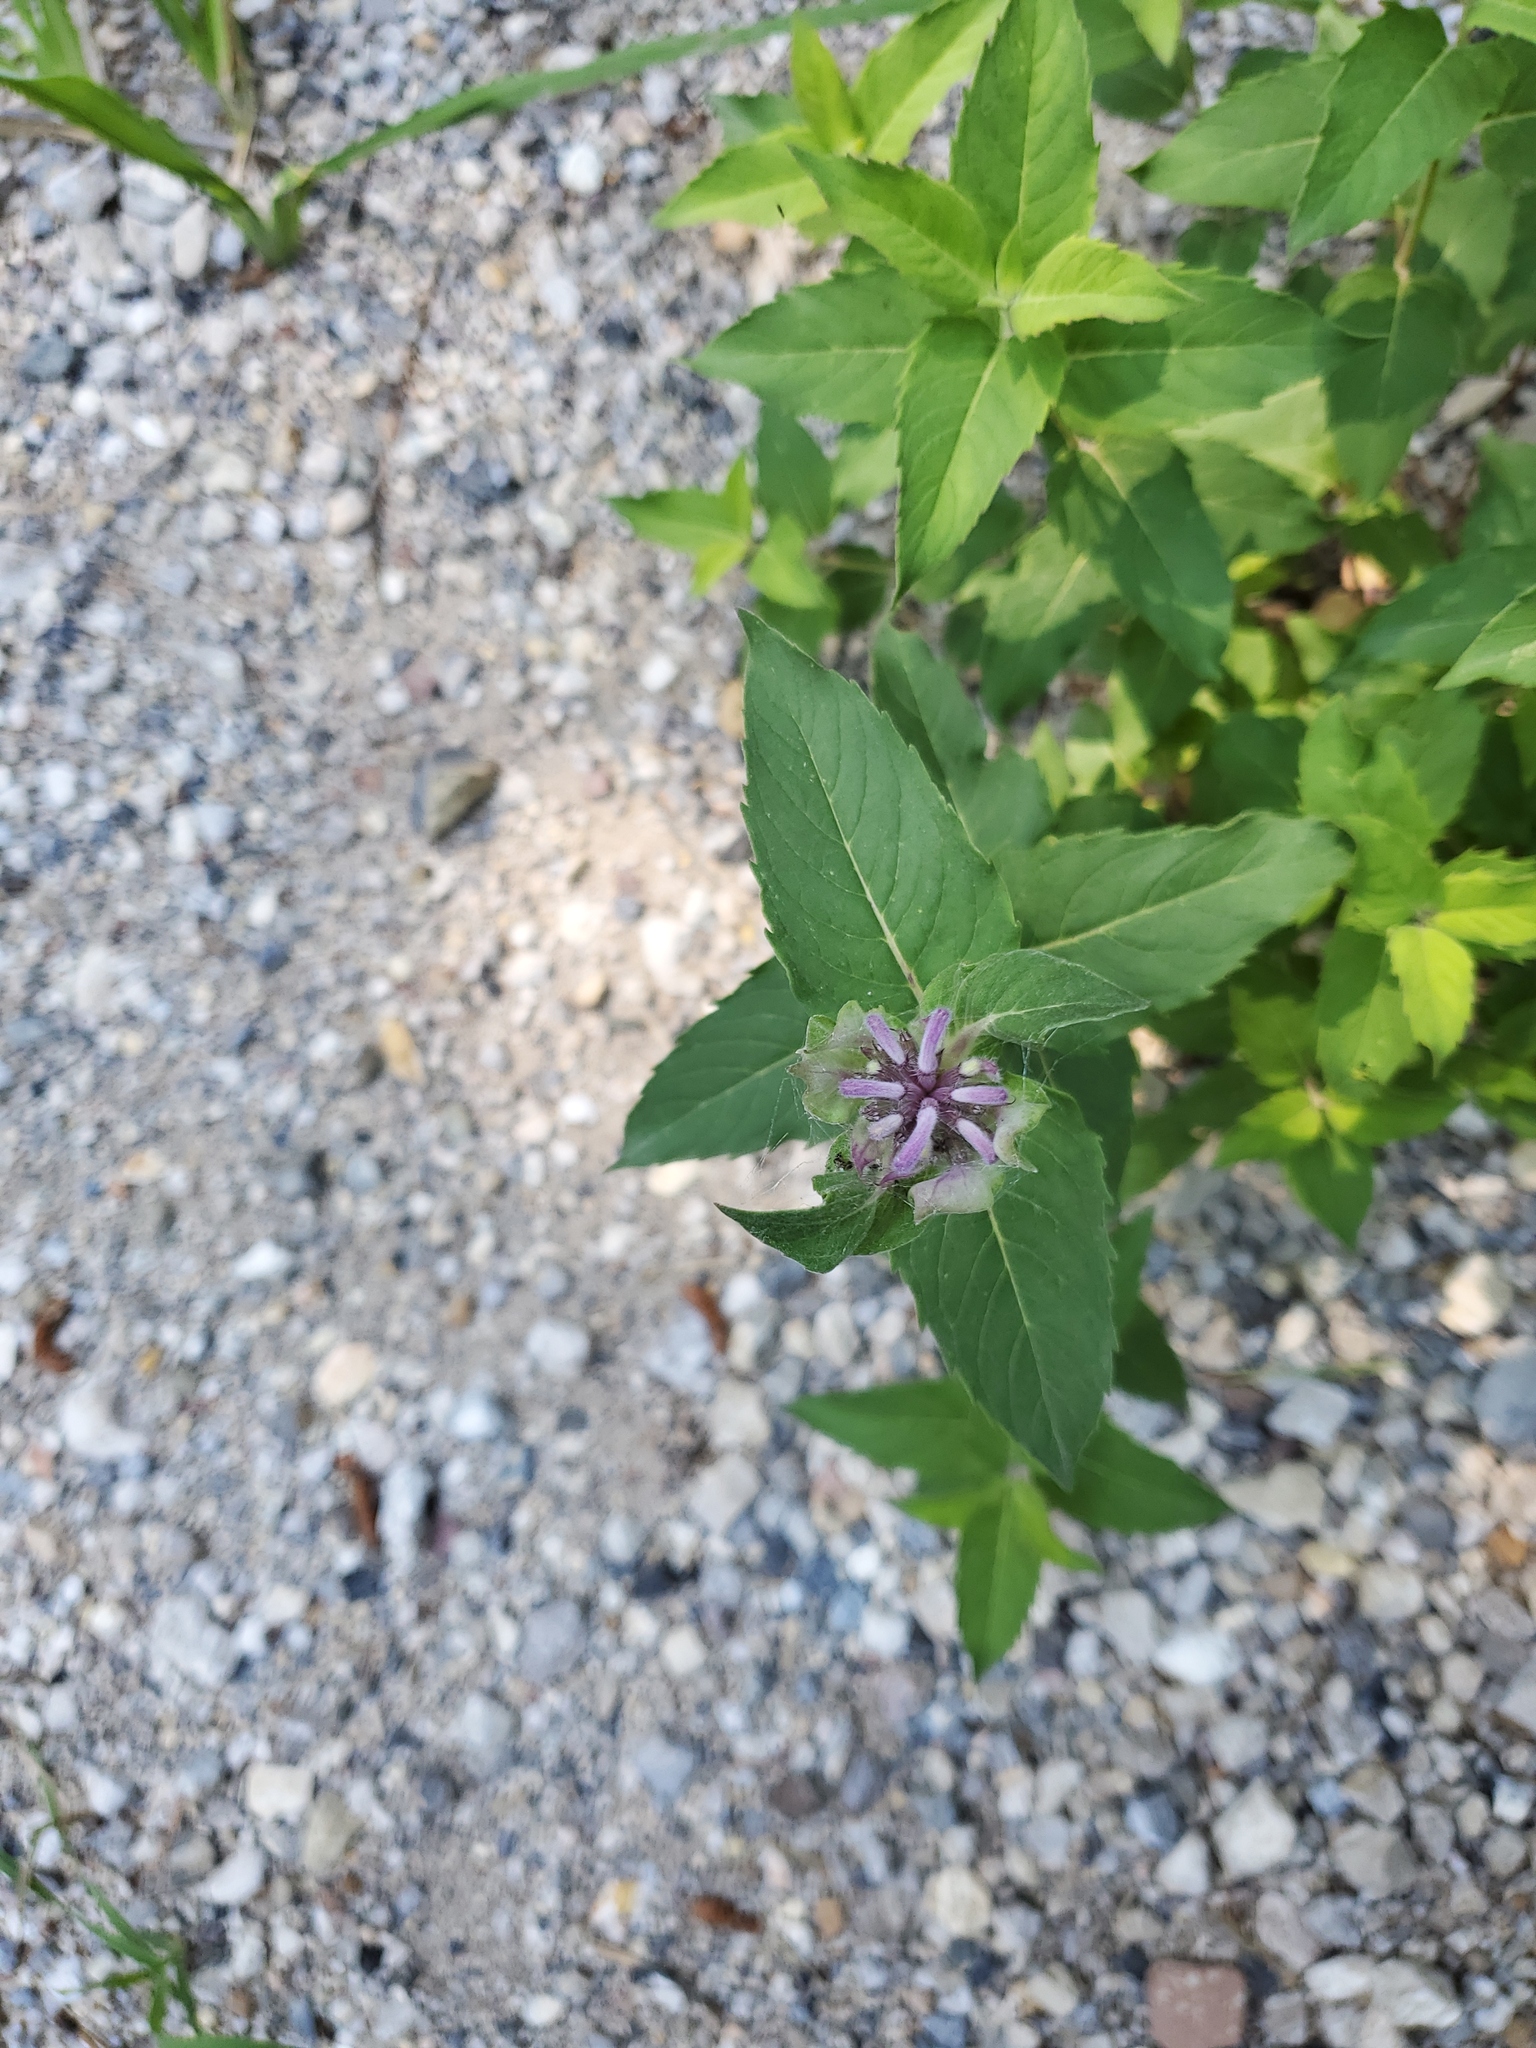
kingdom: Plantae
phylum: Tracheophyta
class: Magnoliopsida
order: Lamiales
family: Lamiaceae
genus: Monarda
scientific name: Monarda fistulosa
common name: Purple beebalm
